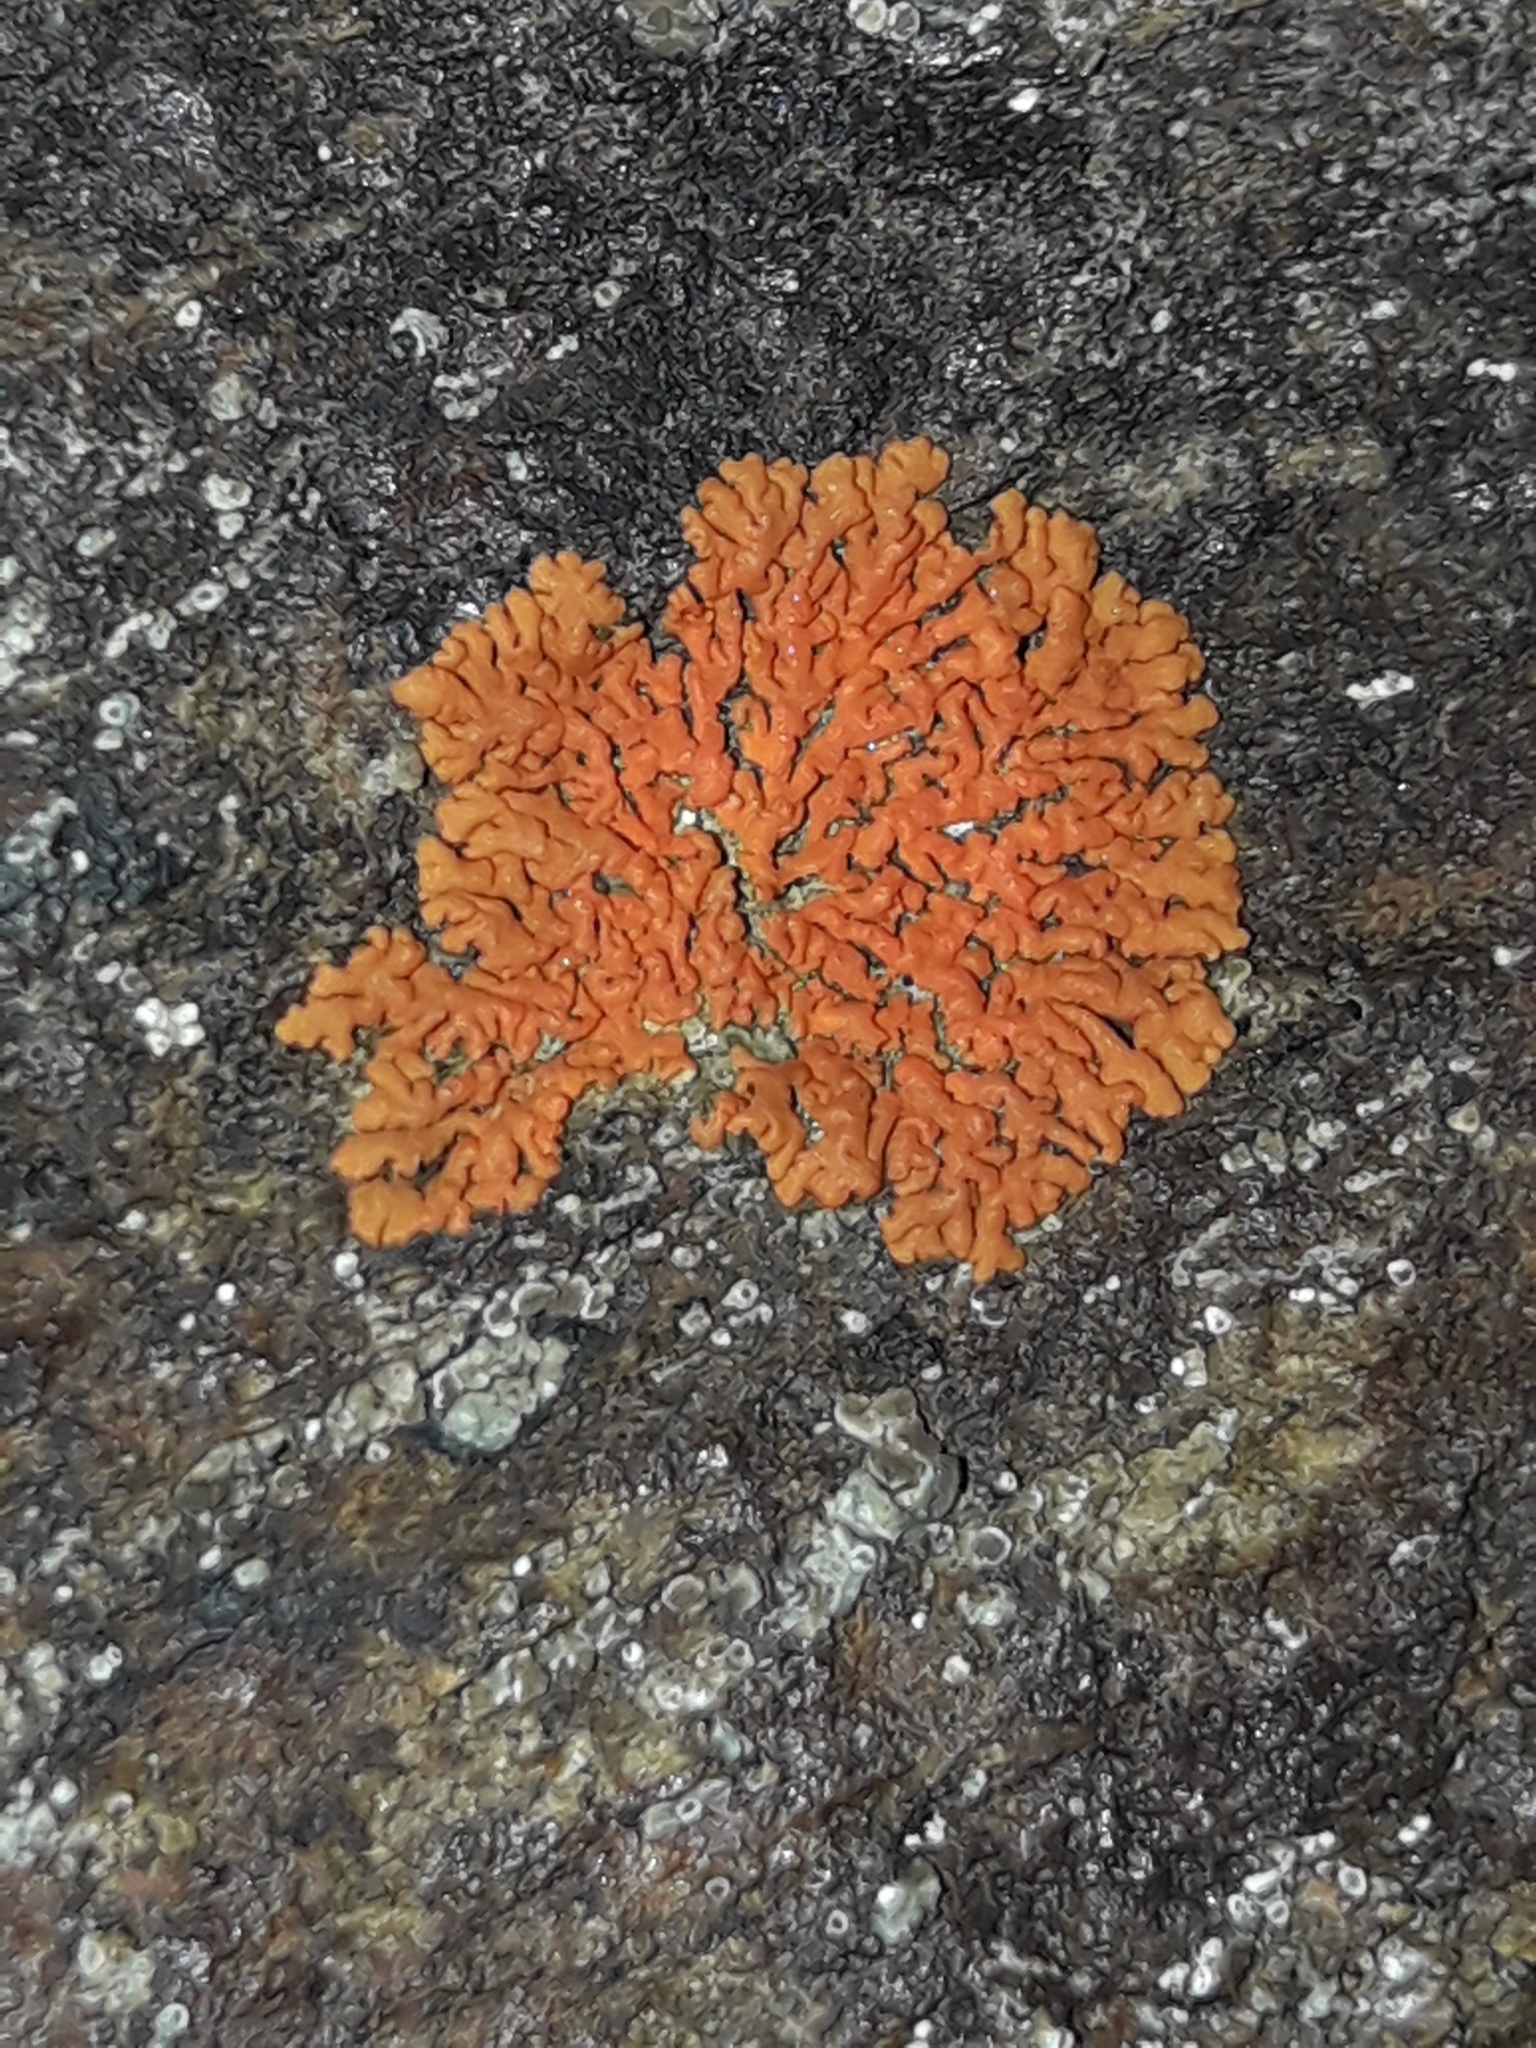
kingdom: Fungi
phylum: Ascomycota
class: Lecanoromycetes
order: Teloschistales
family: Teloschistaceae
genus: Xanthoria
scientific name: Xanthoria elegans
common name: Elegant sunburst lichen
